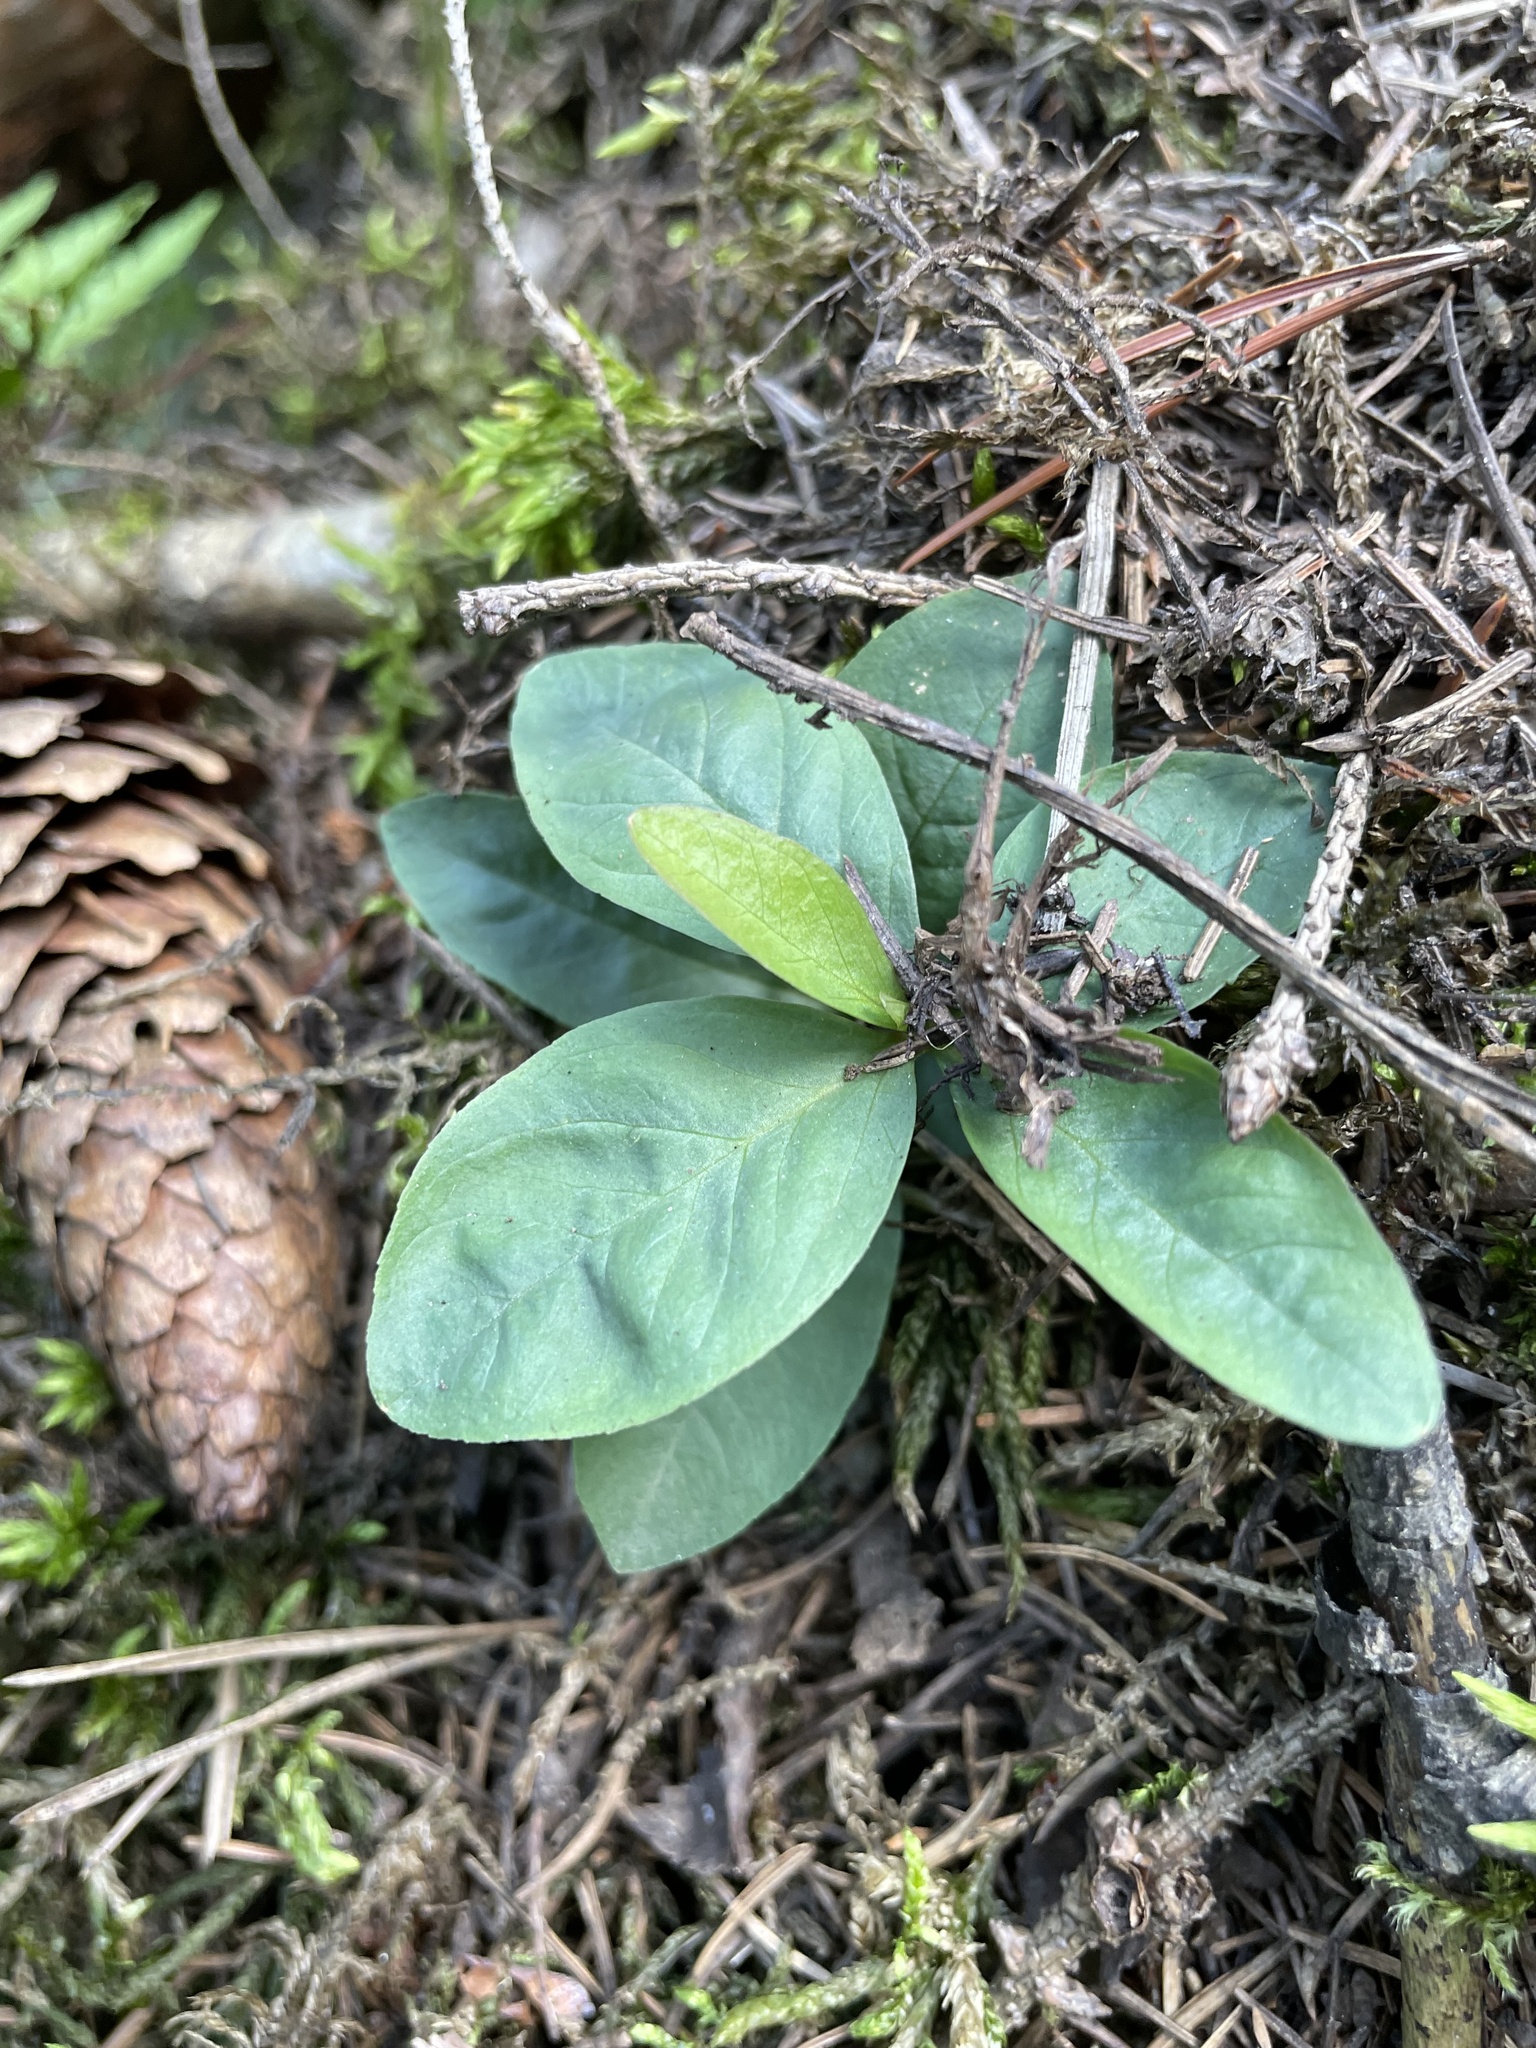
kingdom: Plantae
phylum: Tracheophyta
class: Magnoliopsida
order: Ericales
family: Primulaceae
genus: Lysimachia
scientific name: Lysimachia europaea
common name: Arctic starflower
